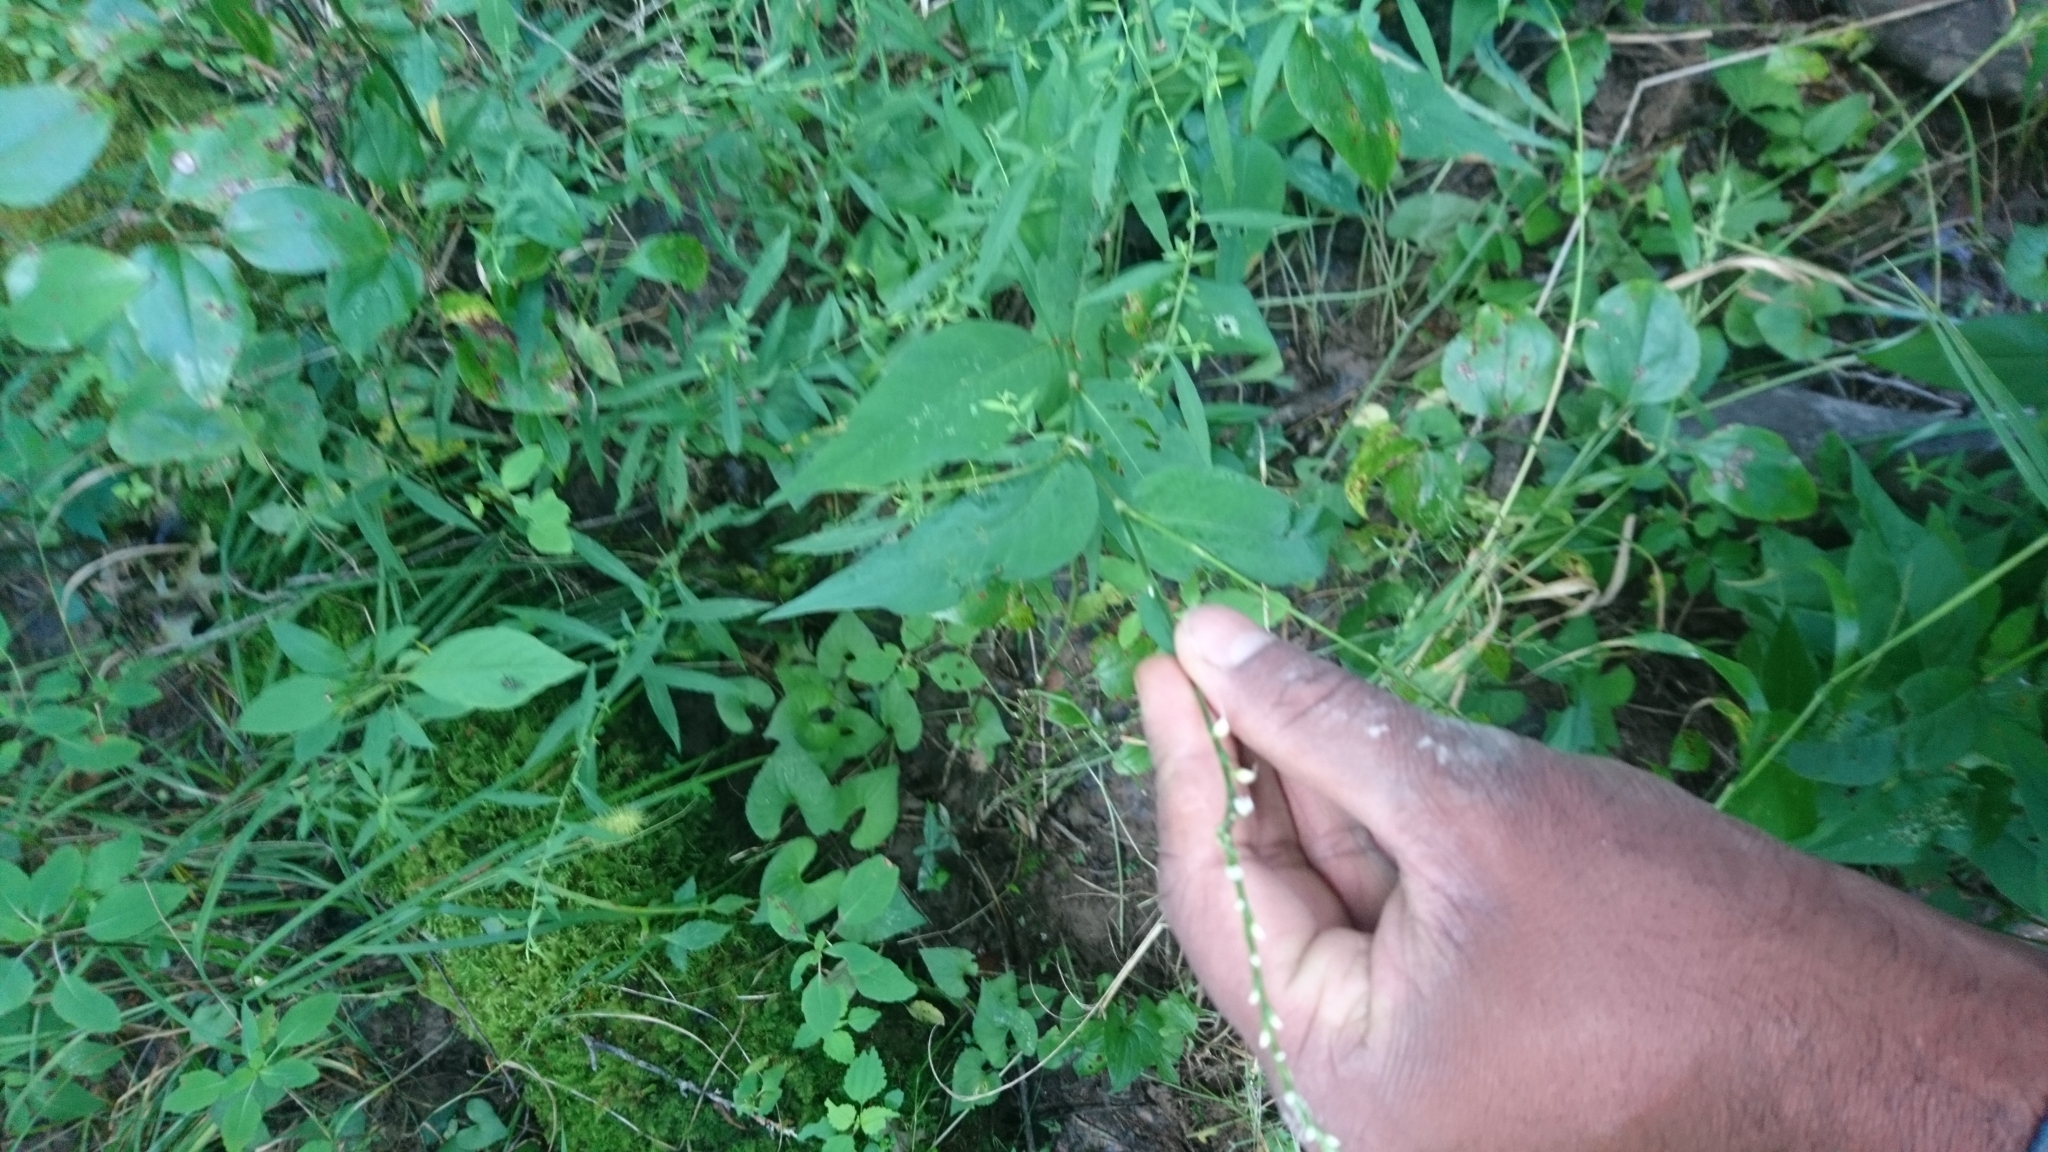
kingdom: Plantae
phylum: Tracheophyta
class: Magnoliopsida
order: Caryophyllales
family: Polygonaceae
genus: Persicaria
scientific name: Persicaria virginiana
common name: Jumpseed
